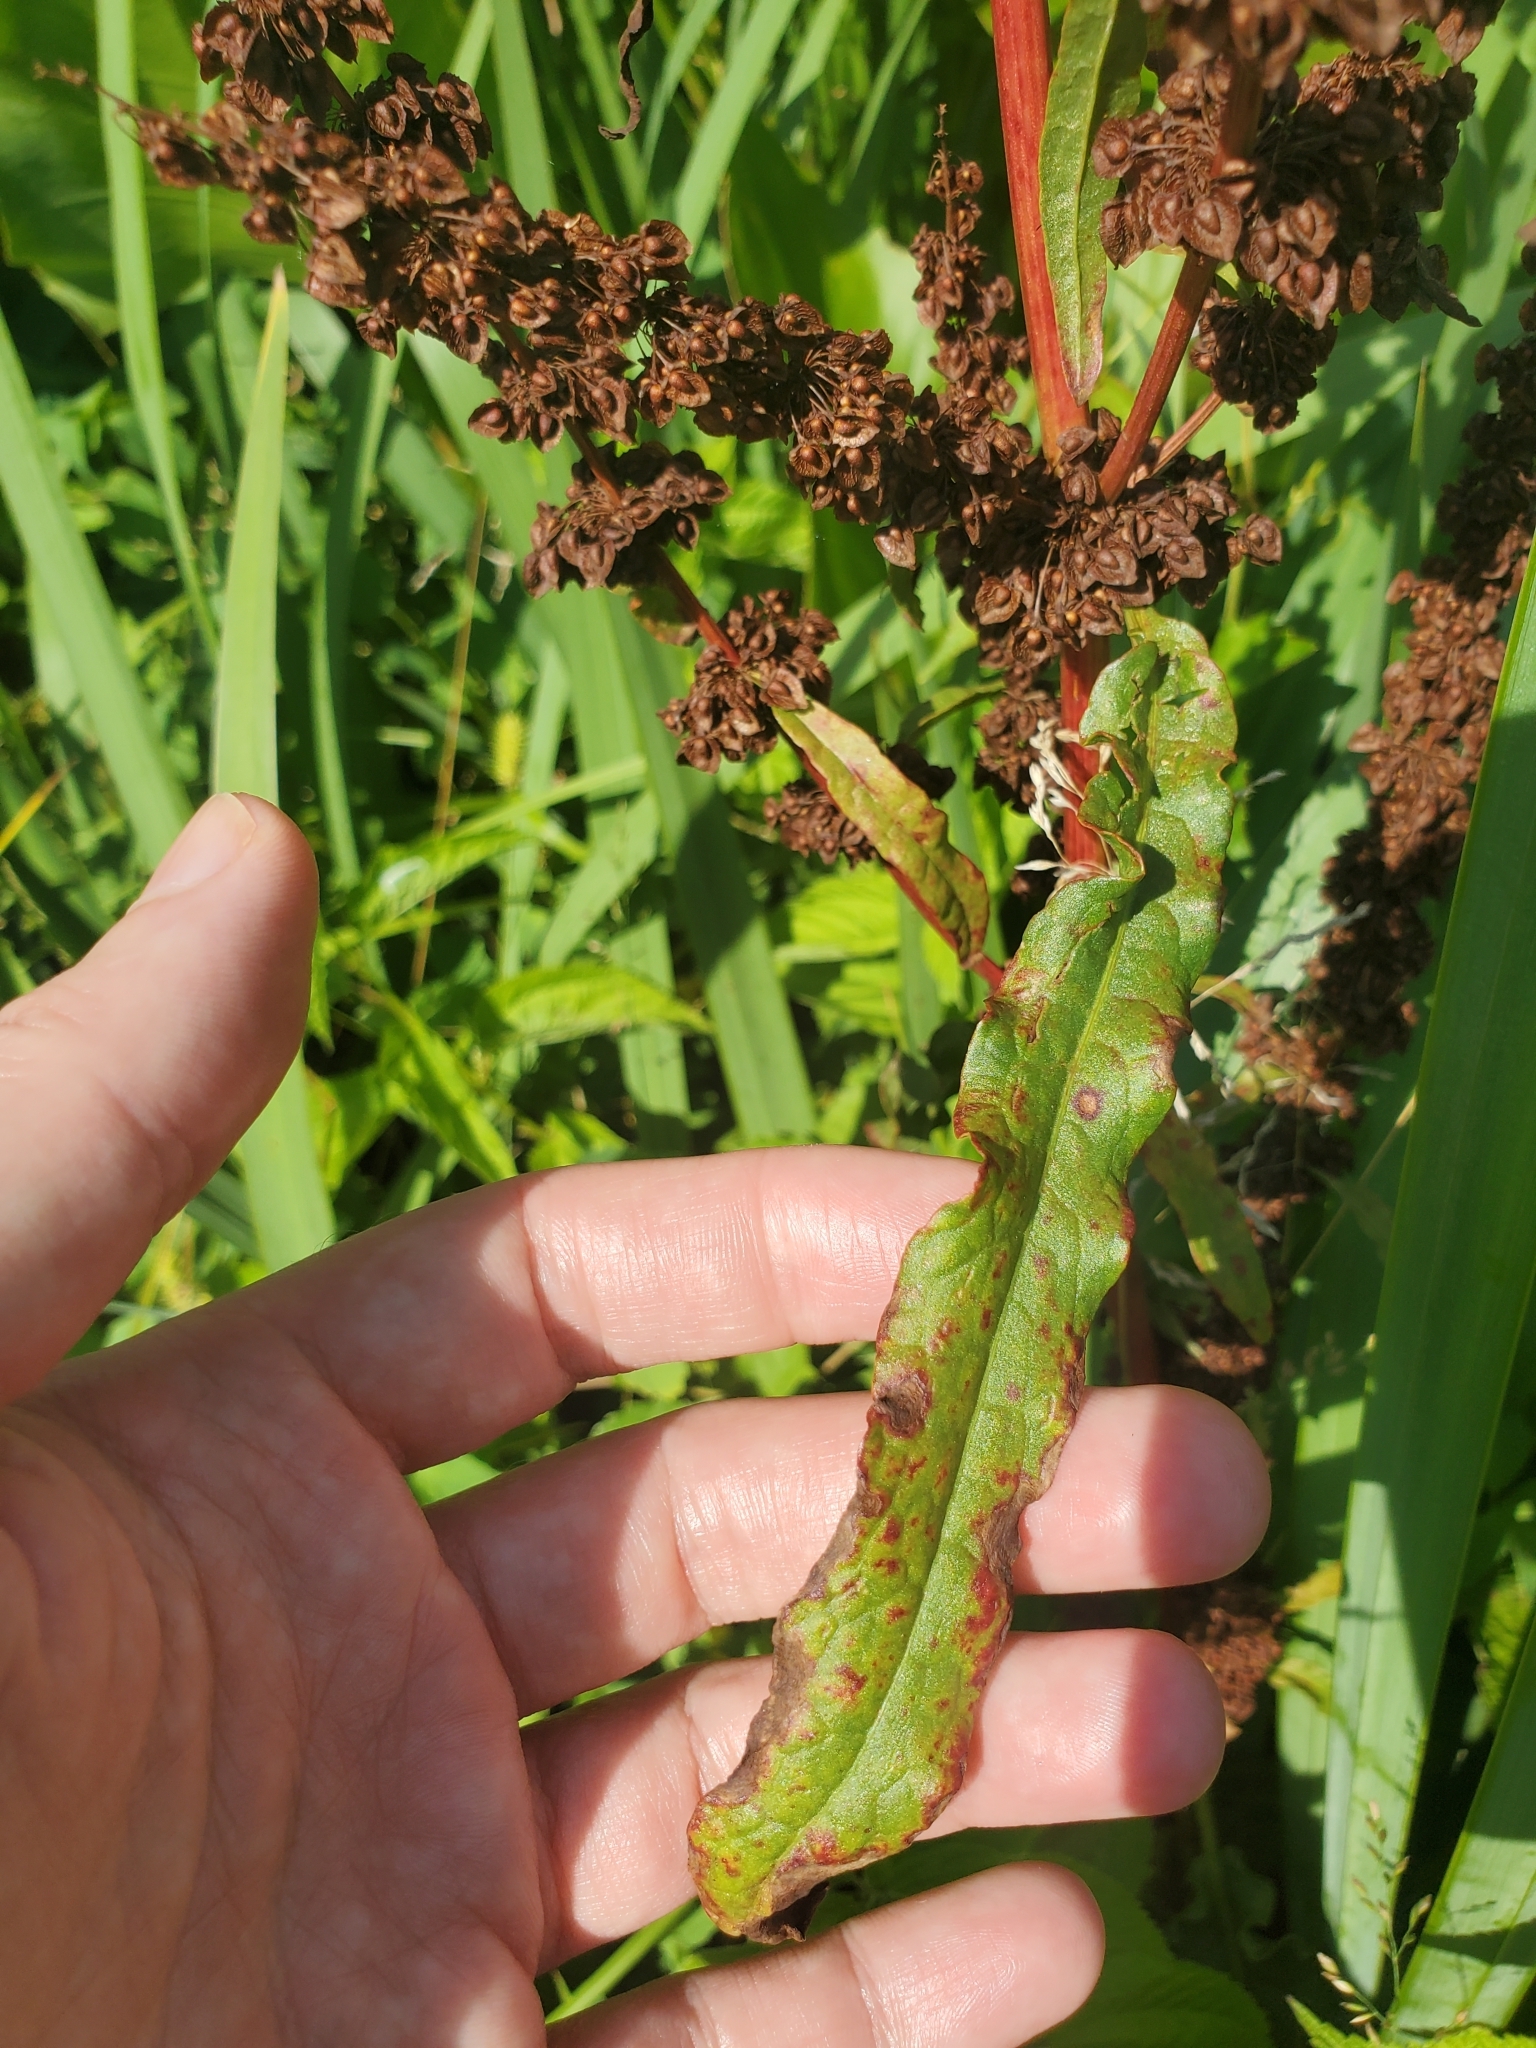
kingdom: Plantae
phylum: Tracheophyta
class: Magnoliopsida
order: Caryophyllales
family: Polygonaceae
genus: Rumex
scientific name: Rumex crispus
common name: Curled dock
